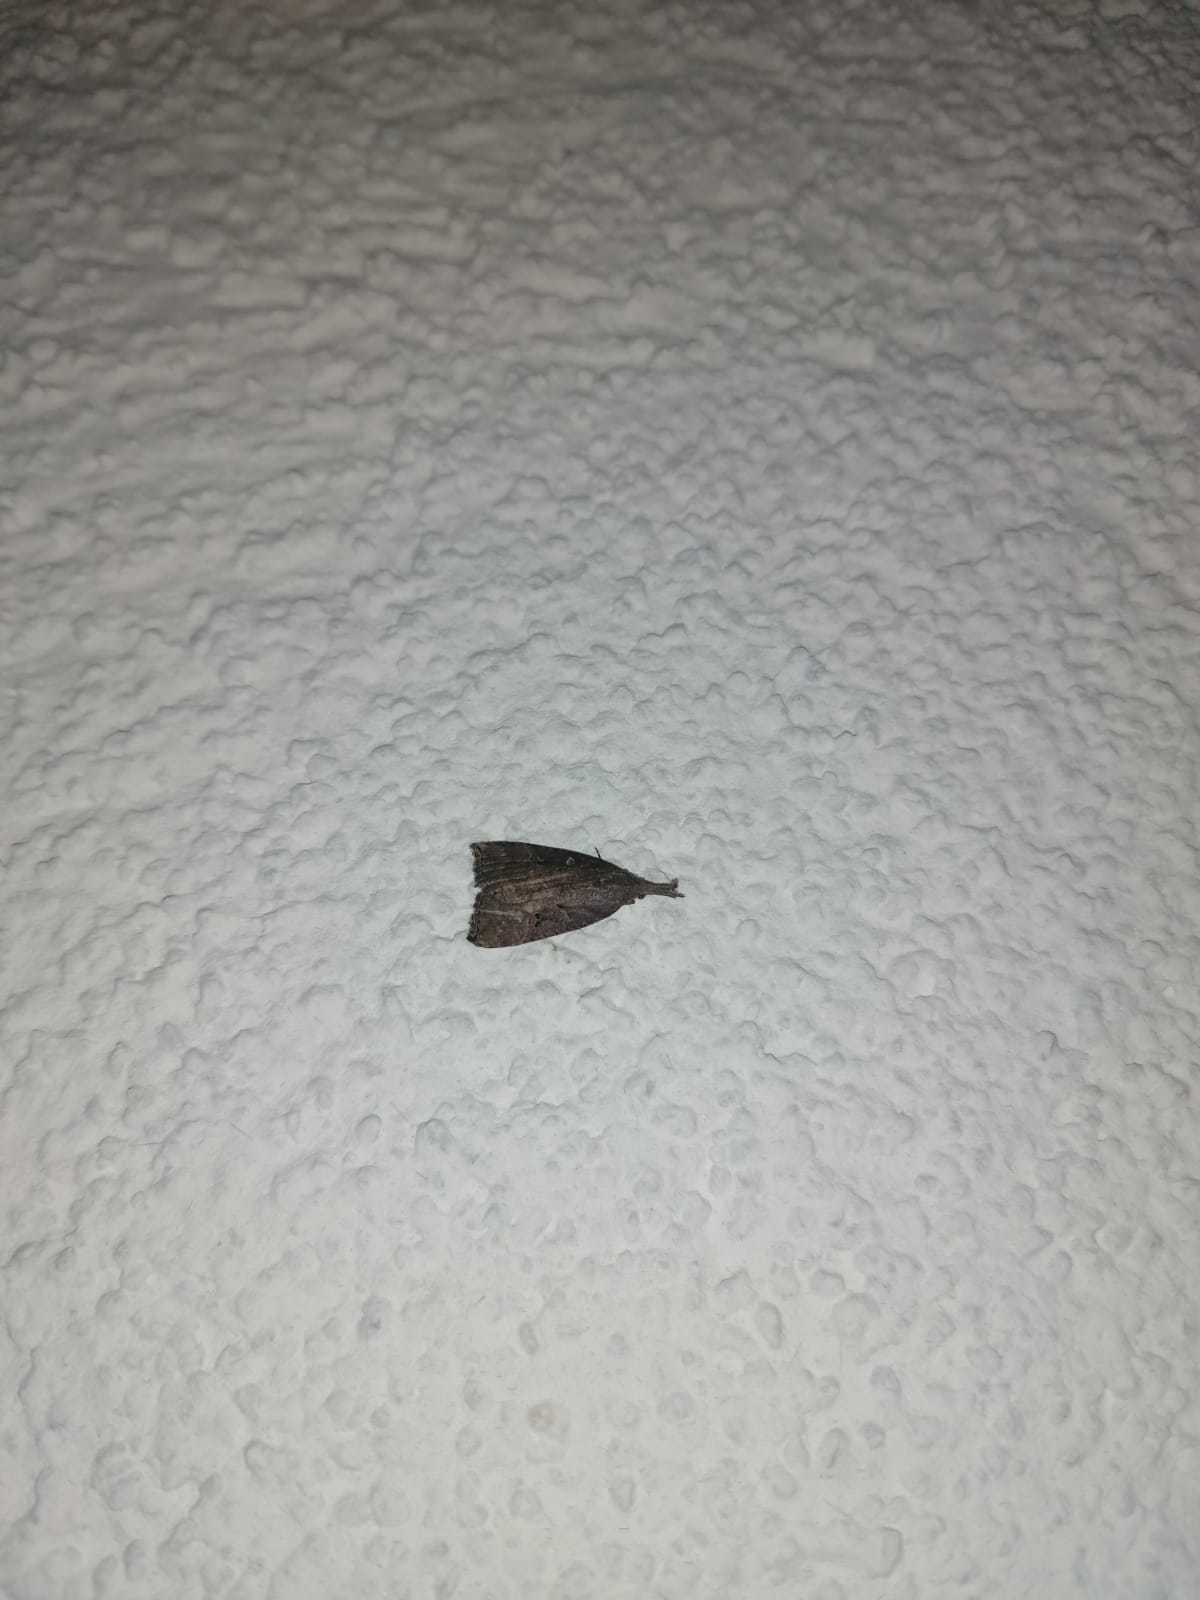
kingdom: Animalia
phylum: Arthropoda
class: Insecta
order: Lepidoptera
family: Erebidae
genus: Hypena
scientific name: Hypena rostralis
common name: Buttoned snout
